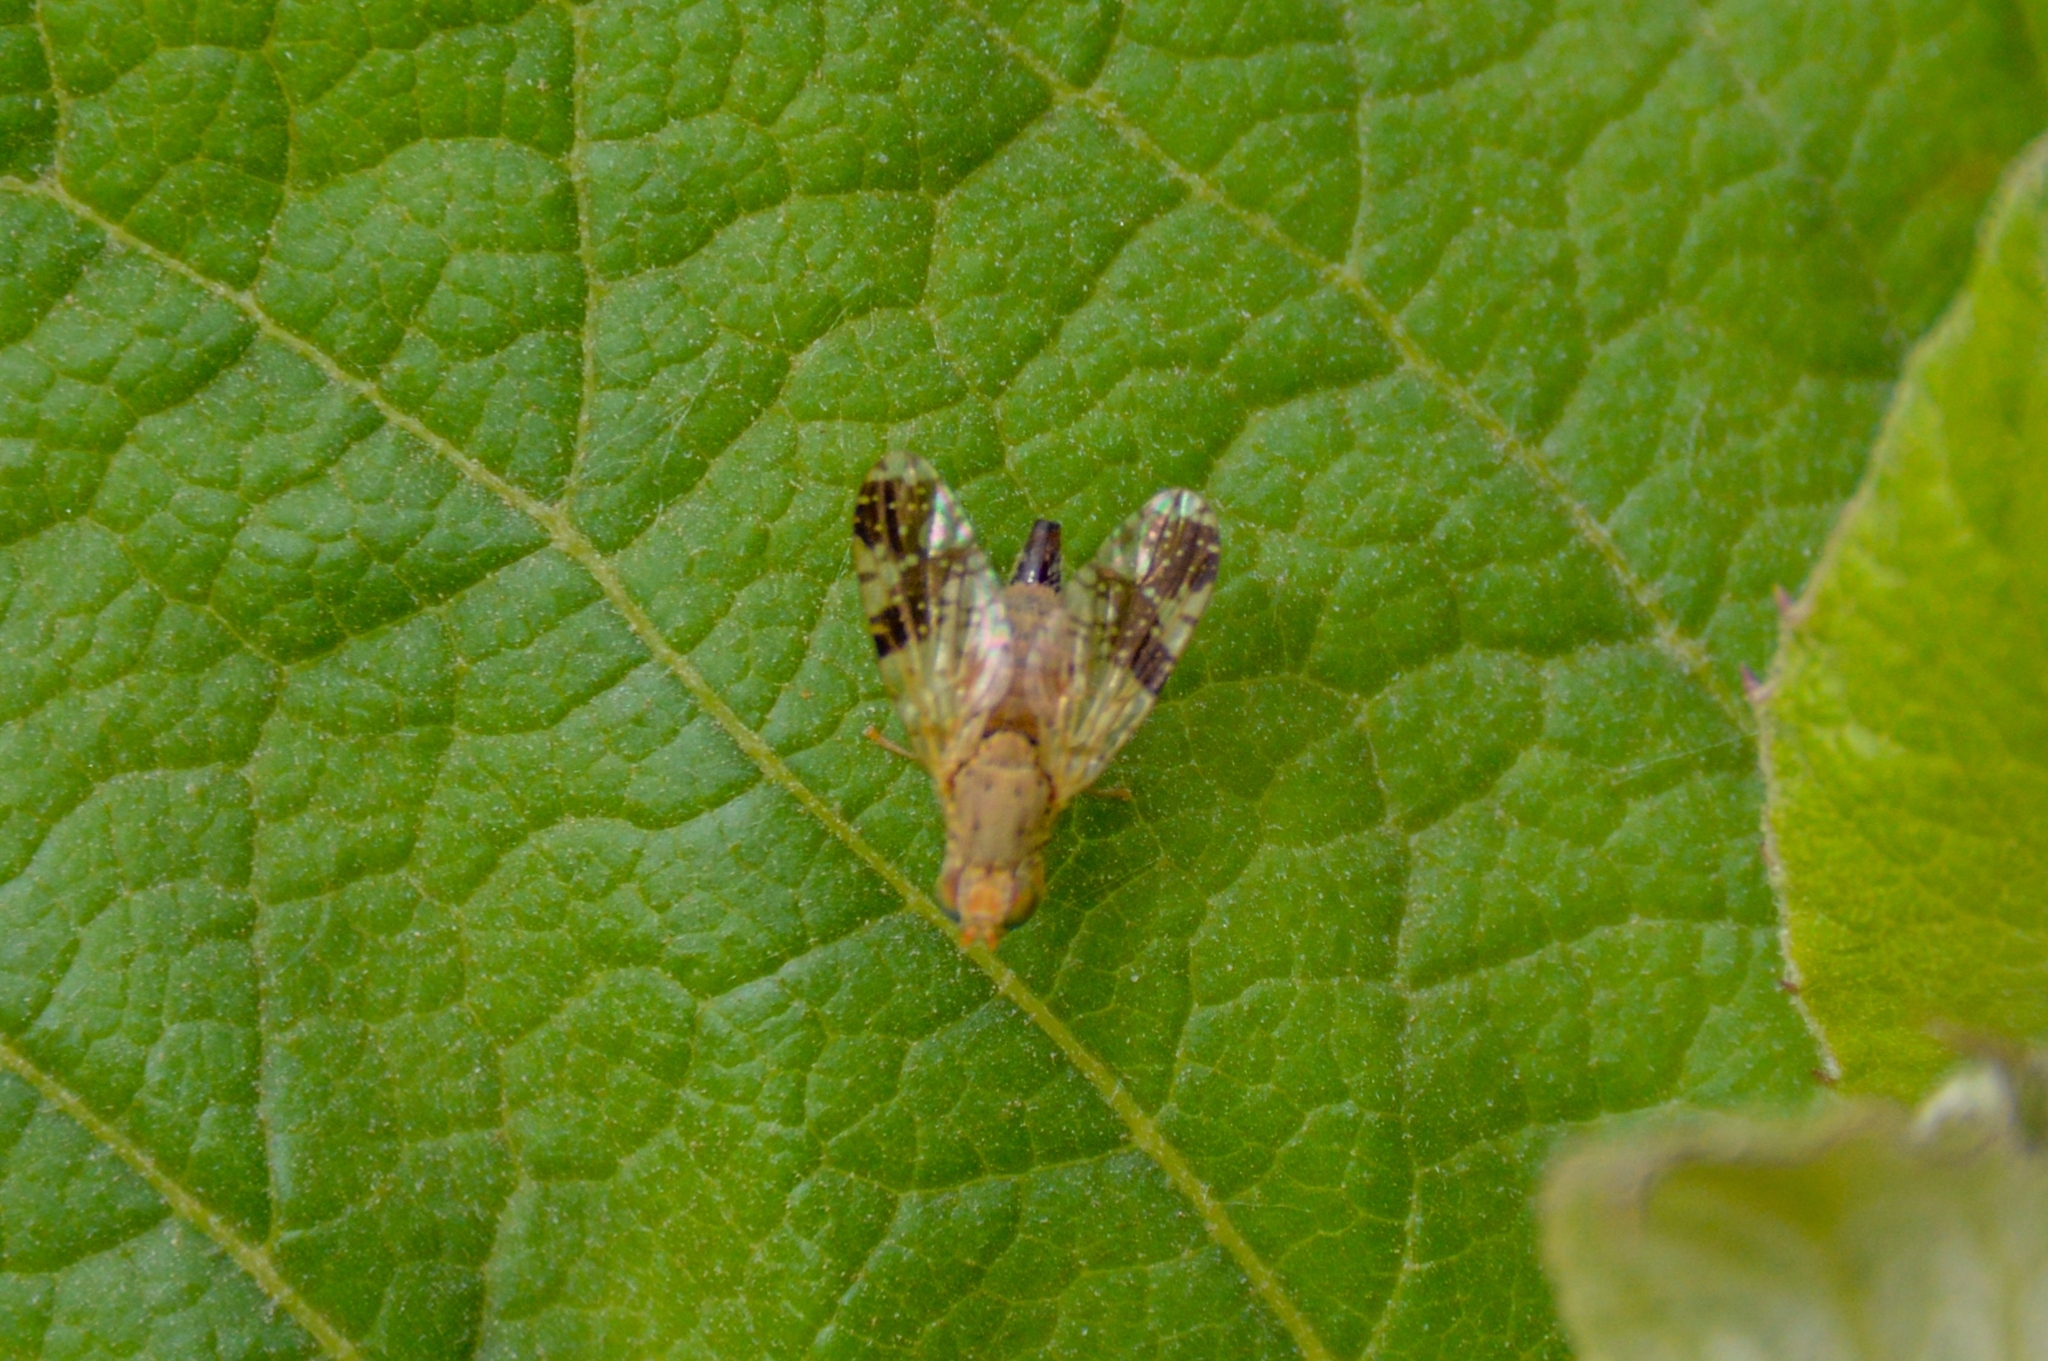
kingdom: Animalia
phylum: Arthropoda
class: Insecta
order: Diptera
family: Tephritidae
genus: Tephritis
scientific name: Tephritis bardanae
